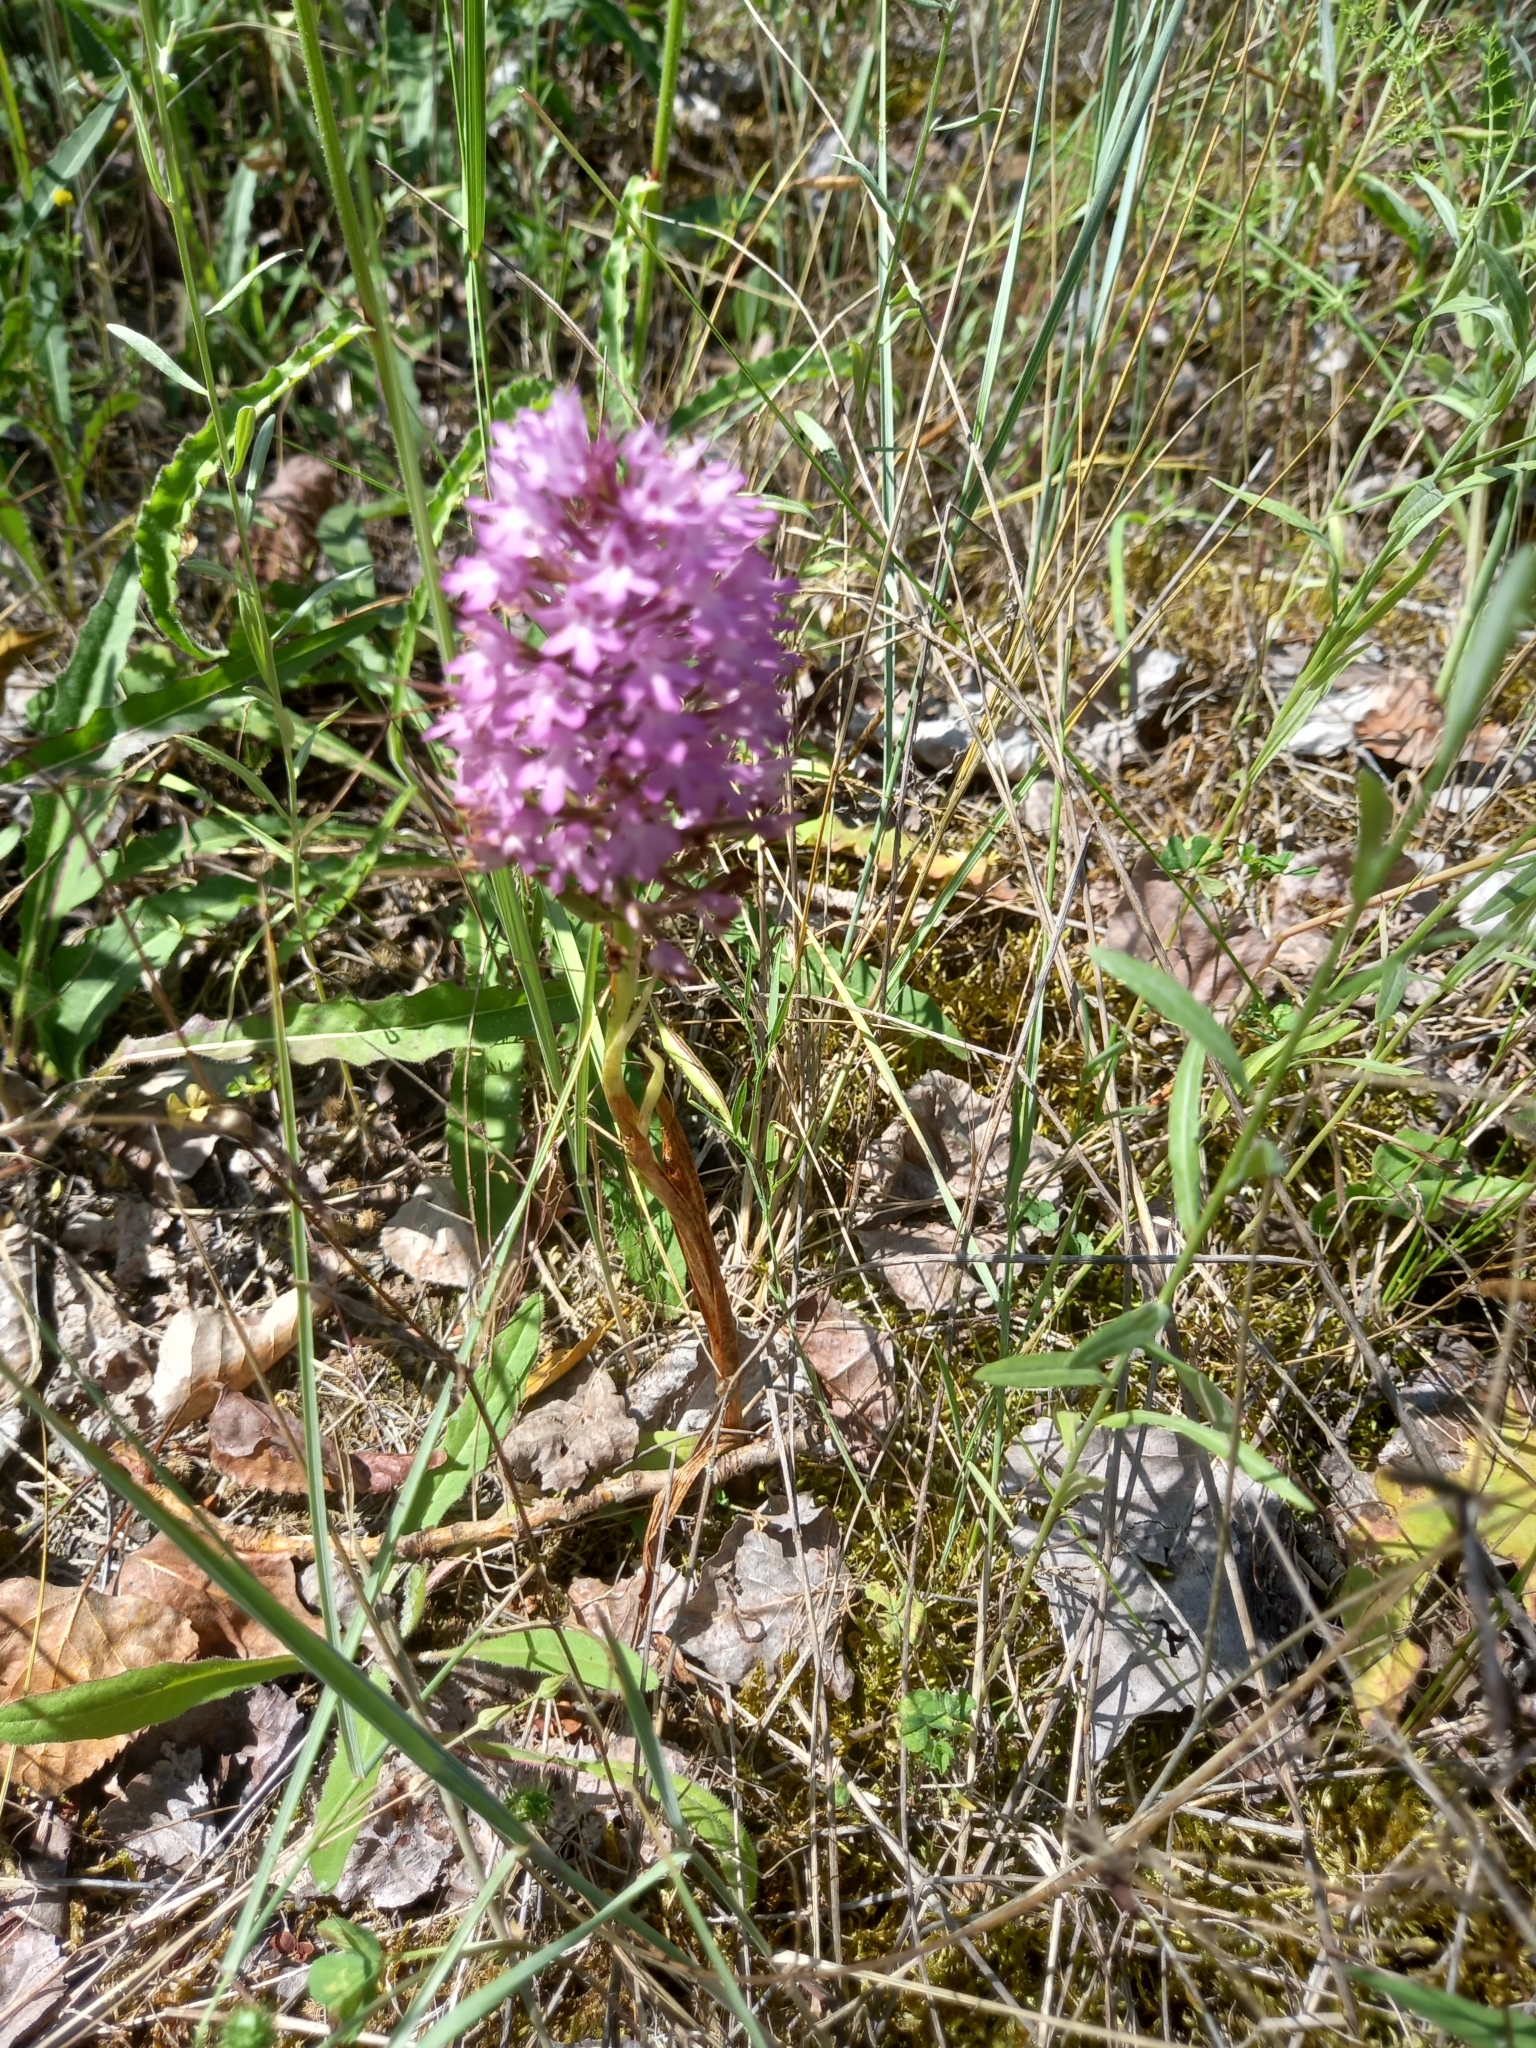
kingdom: Plantae
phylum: Tracheophyta
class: Liliopsida
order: Asparagales
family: Orchidaceae
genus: Anacamptis
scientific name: Anacamptis pyramidalis
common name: Pyramidal orchid
